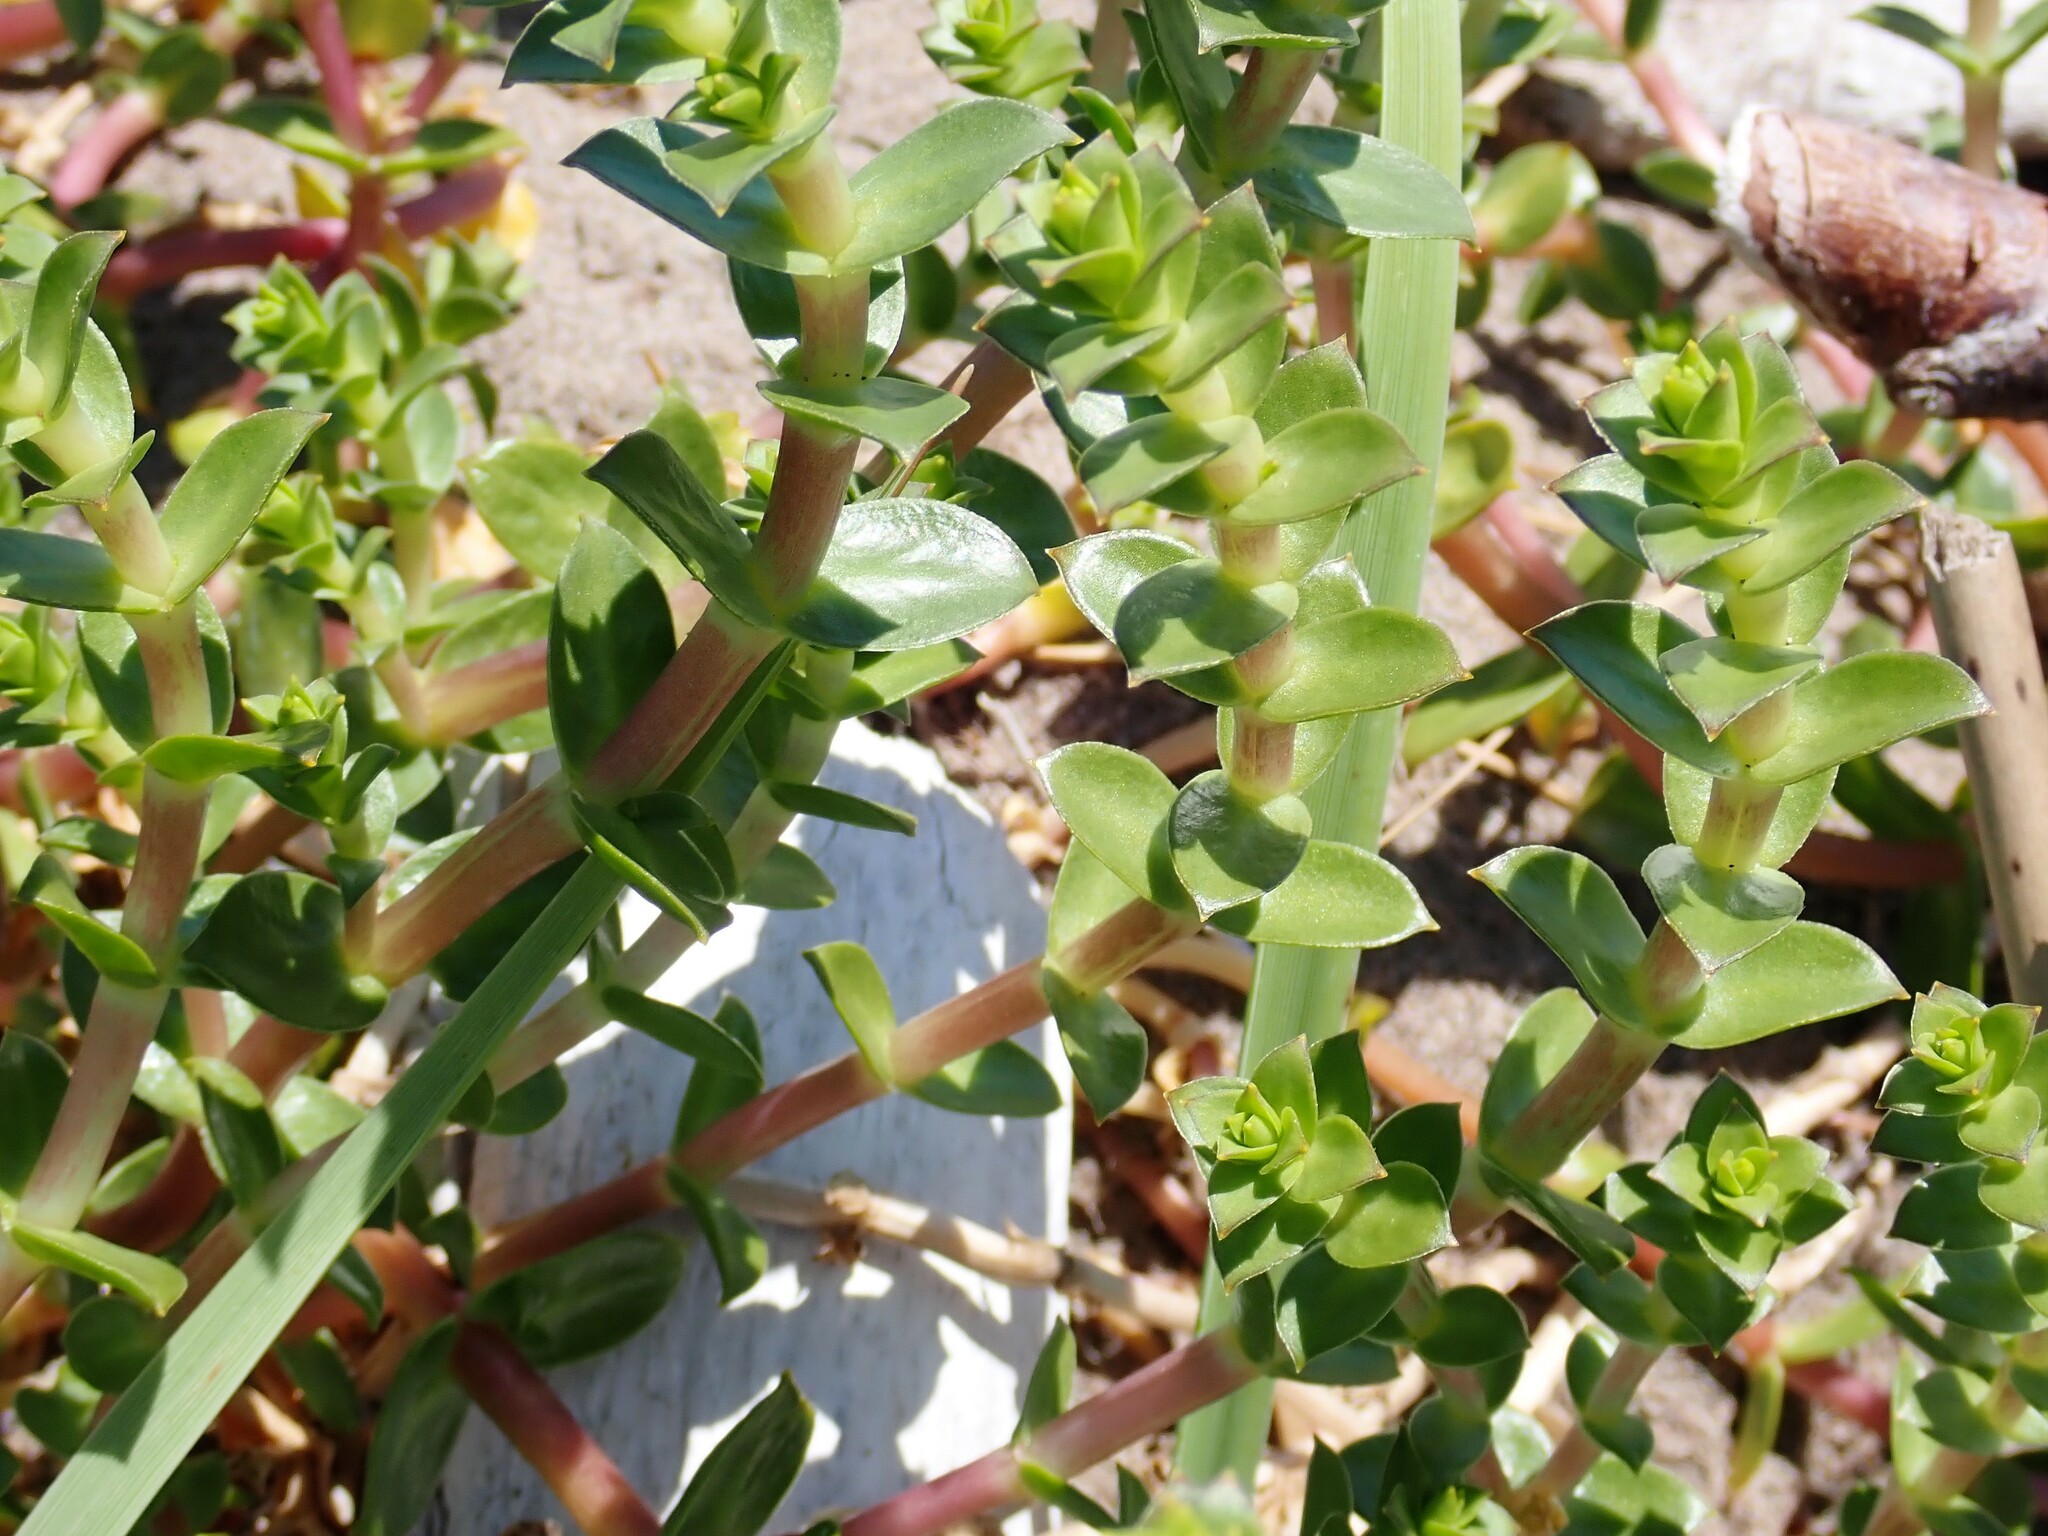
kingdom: Plantae
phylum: Tracheophyta
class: Magnoliopsida
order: Caryophyllales
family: Caryophyllaceae
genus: Honckenya
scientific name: Honckenya peploides
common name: Sea sandwort
